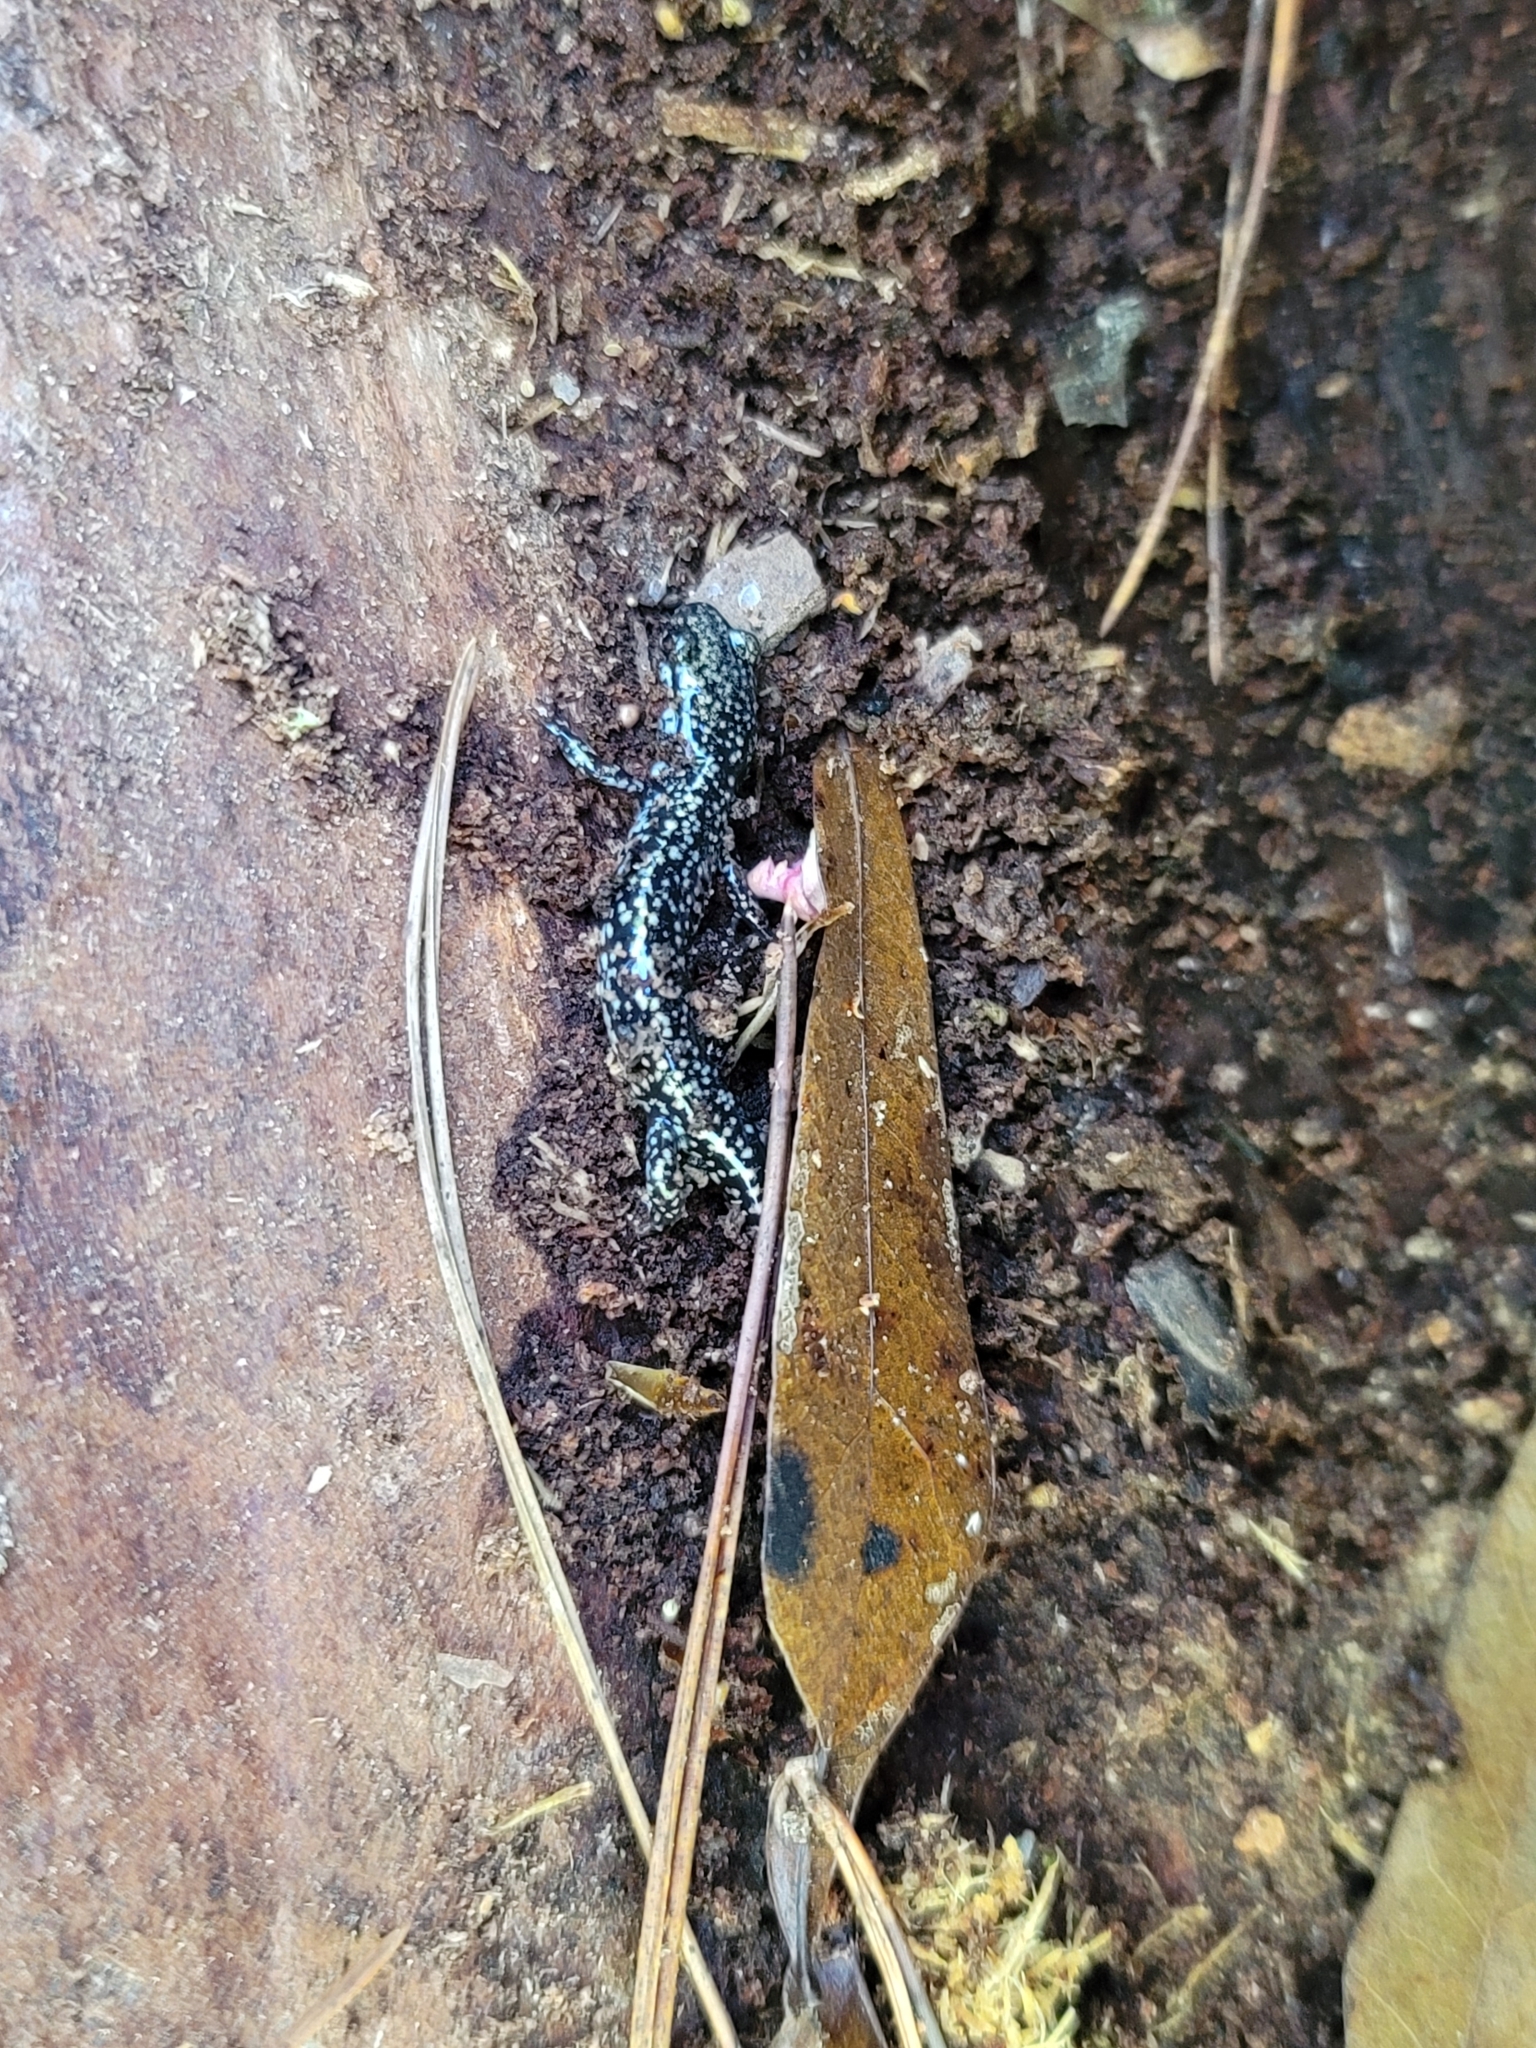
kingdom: Animalia
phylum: Chordata
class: Amphibia
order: Caudata
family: Plethodontidae
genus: Plethodon
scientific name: Plethodon grobmani
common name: Southeastern slimy salamander
